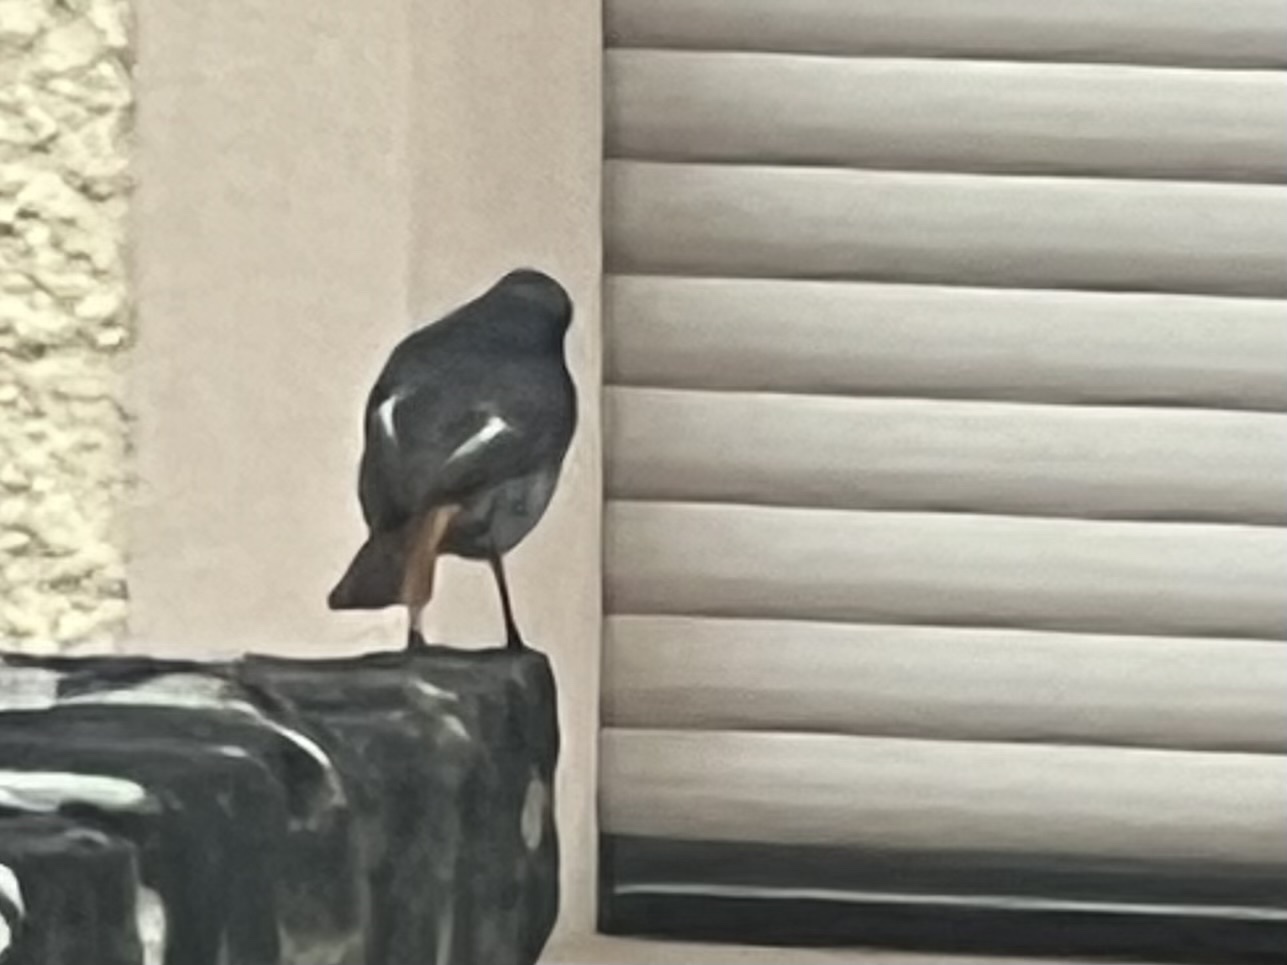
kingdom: Animalia
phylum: Chordata
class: Aves
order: Passeriformes
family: Muscicapidae
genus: Phoenicurus
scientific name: Phoenicurus ochruros
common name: Black redstart
